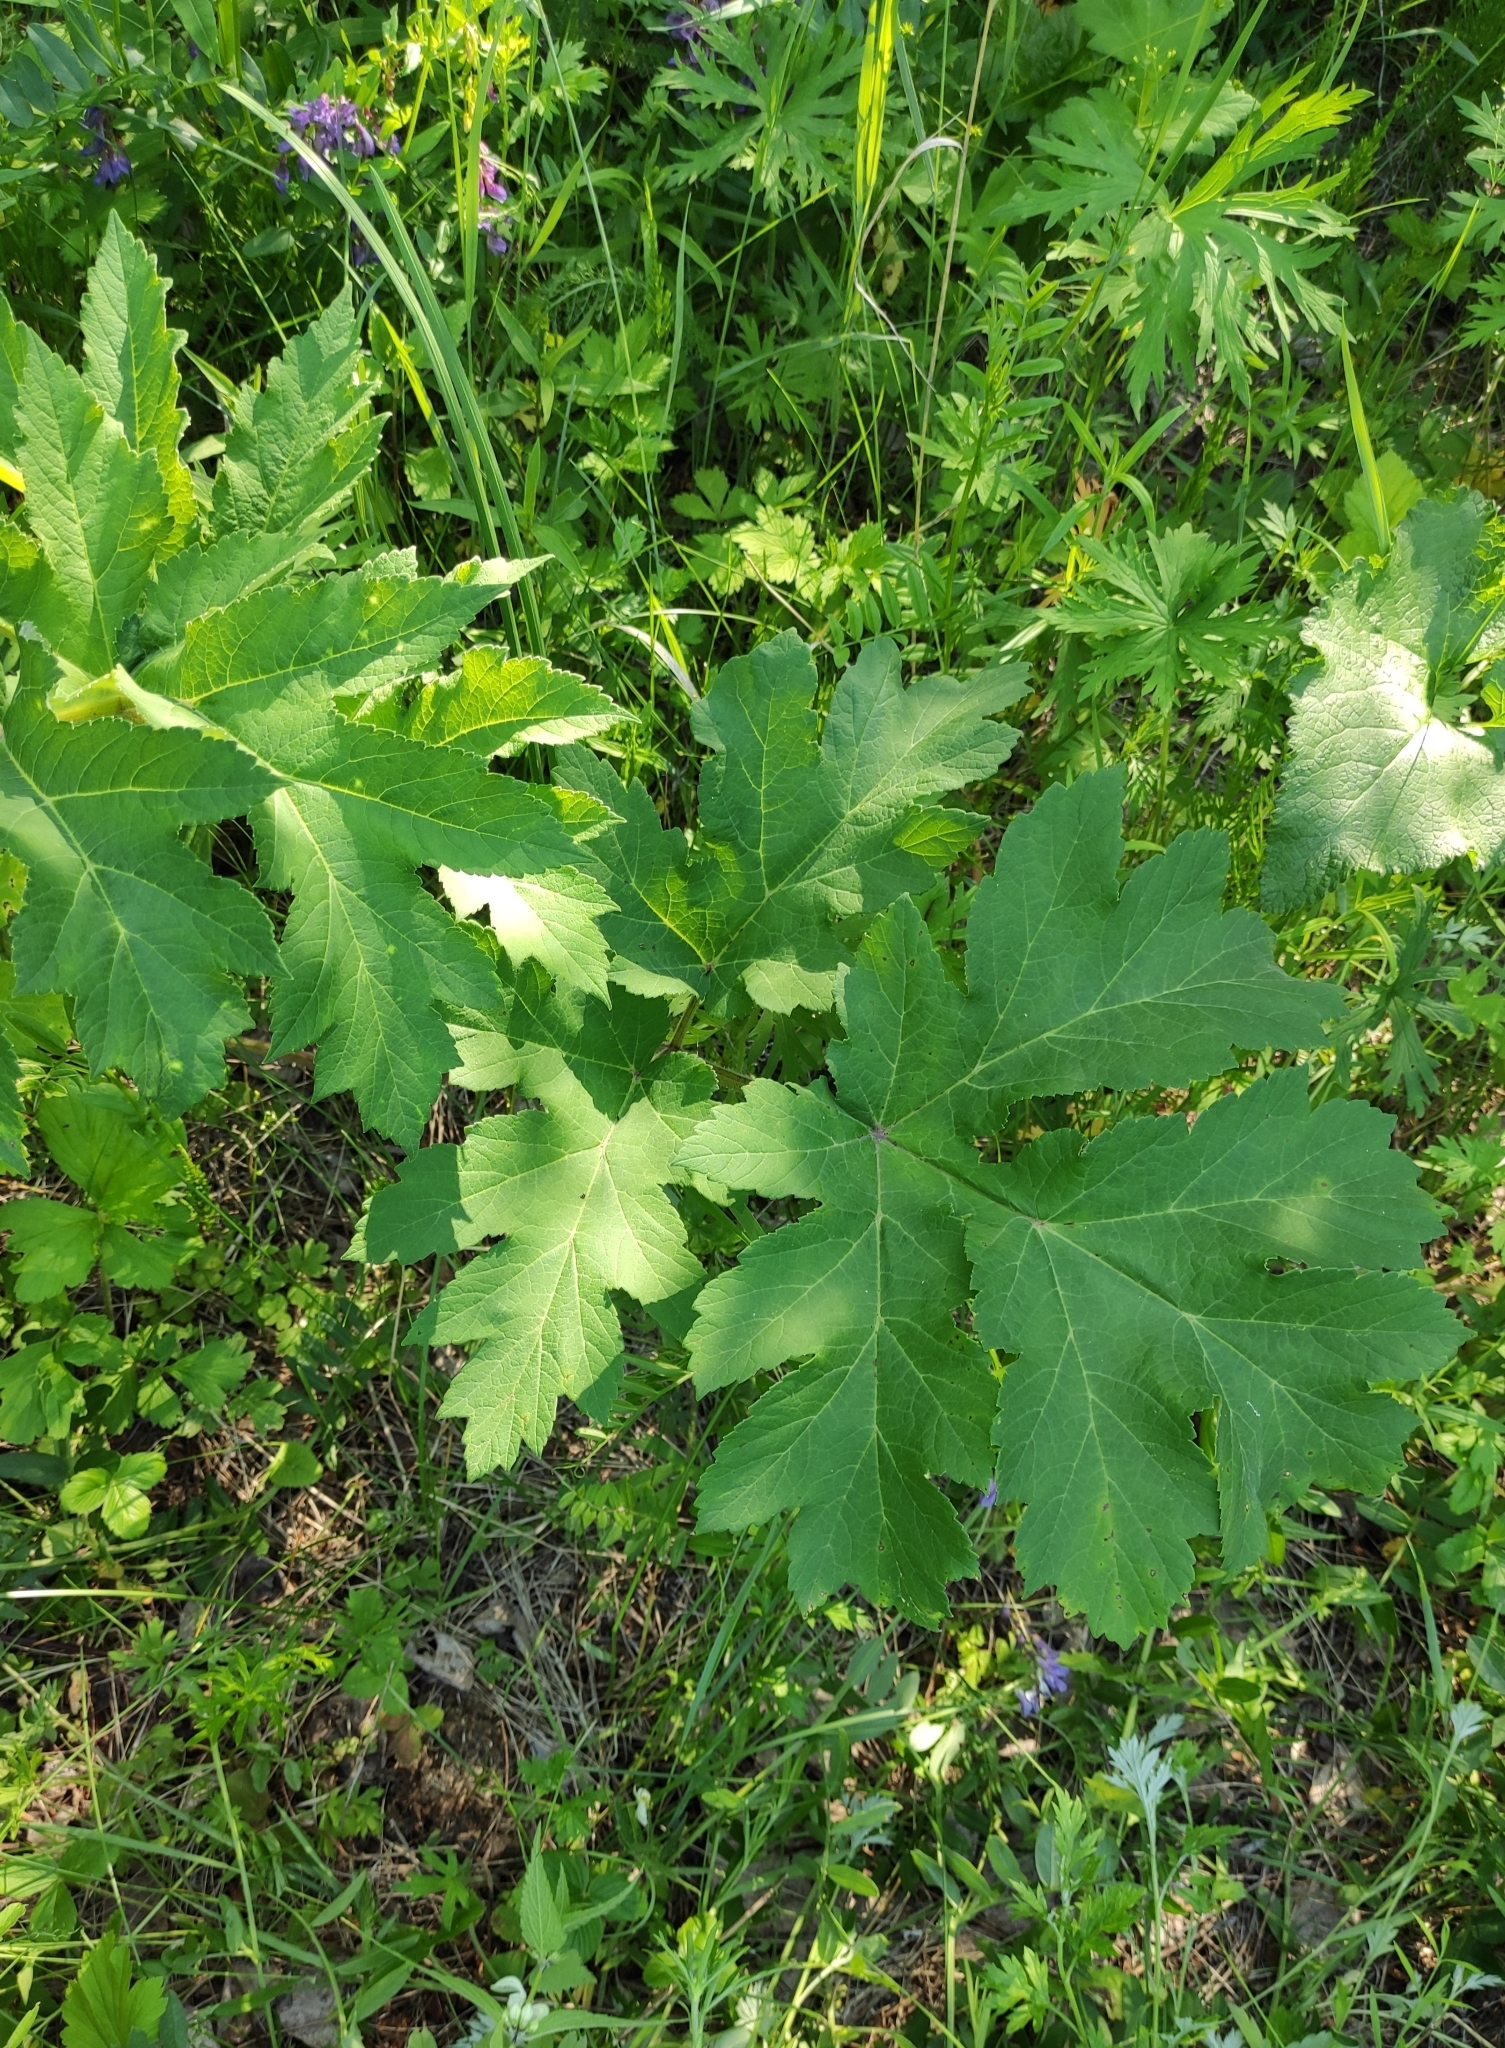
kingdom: Plantae
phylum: Tracheophyta
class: Magnoliopsida
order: Apiales
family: Apiaceae
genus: Heracleum
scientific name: Heracleum dissectum
